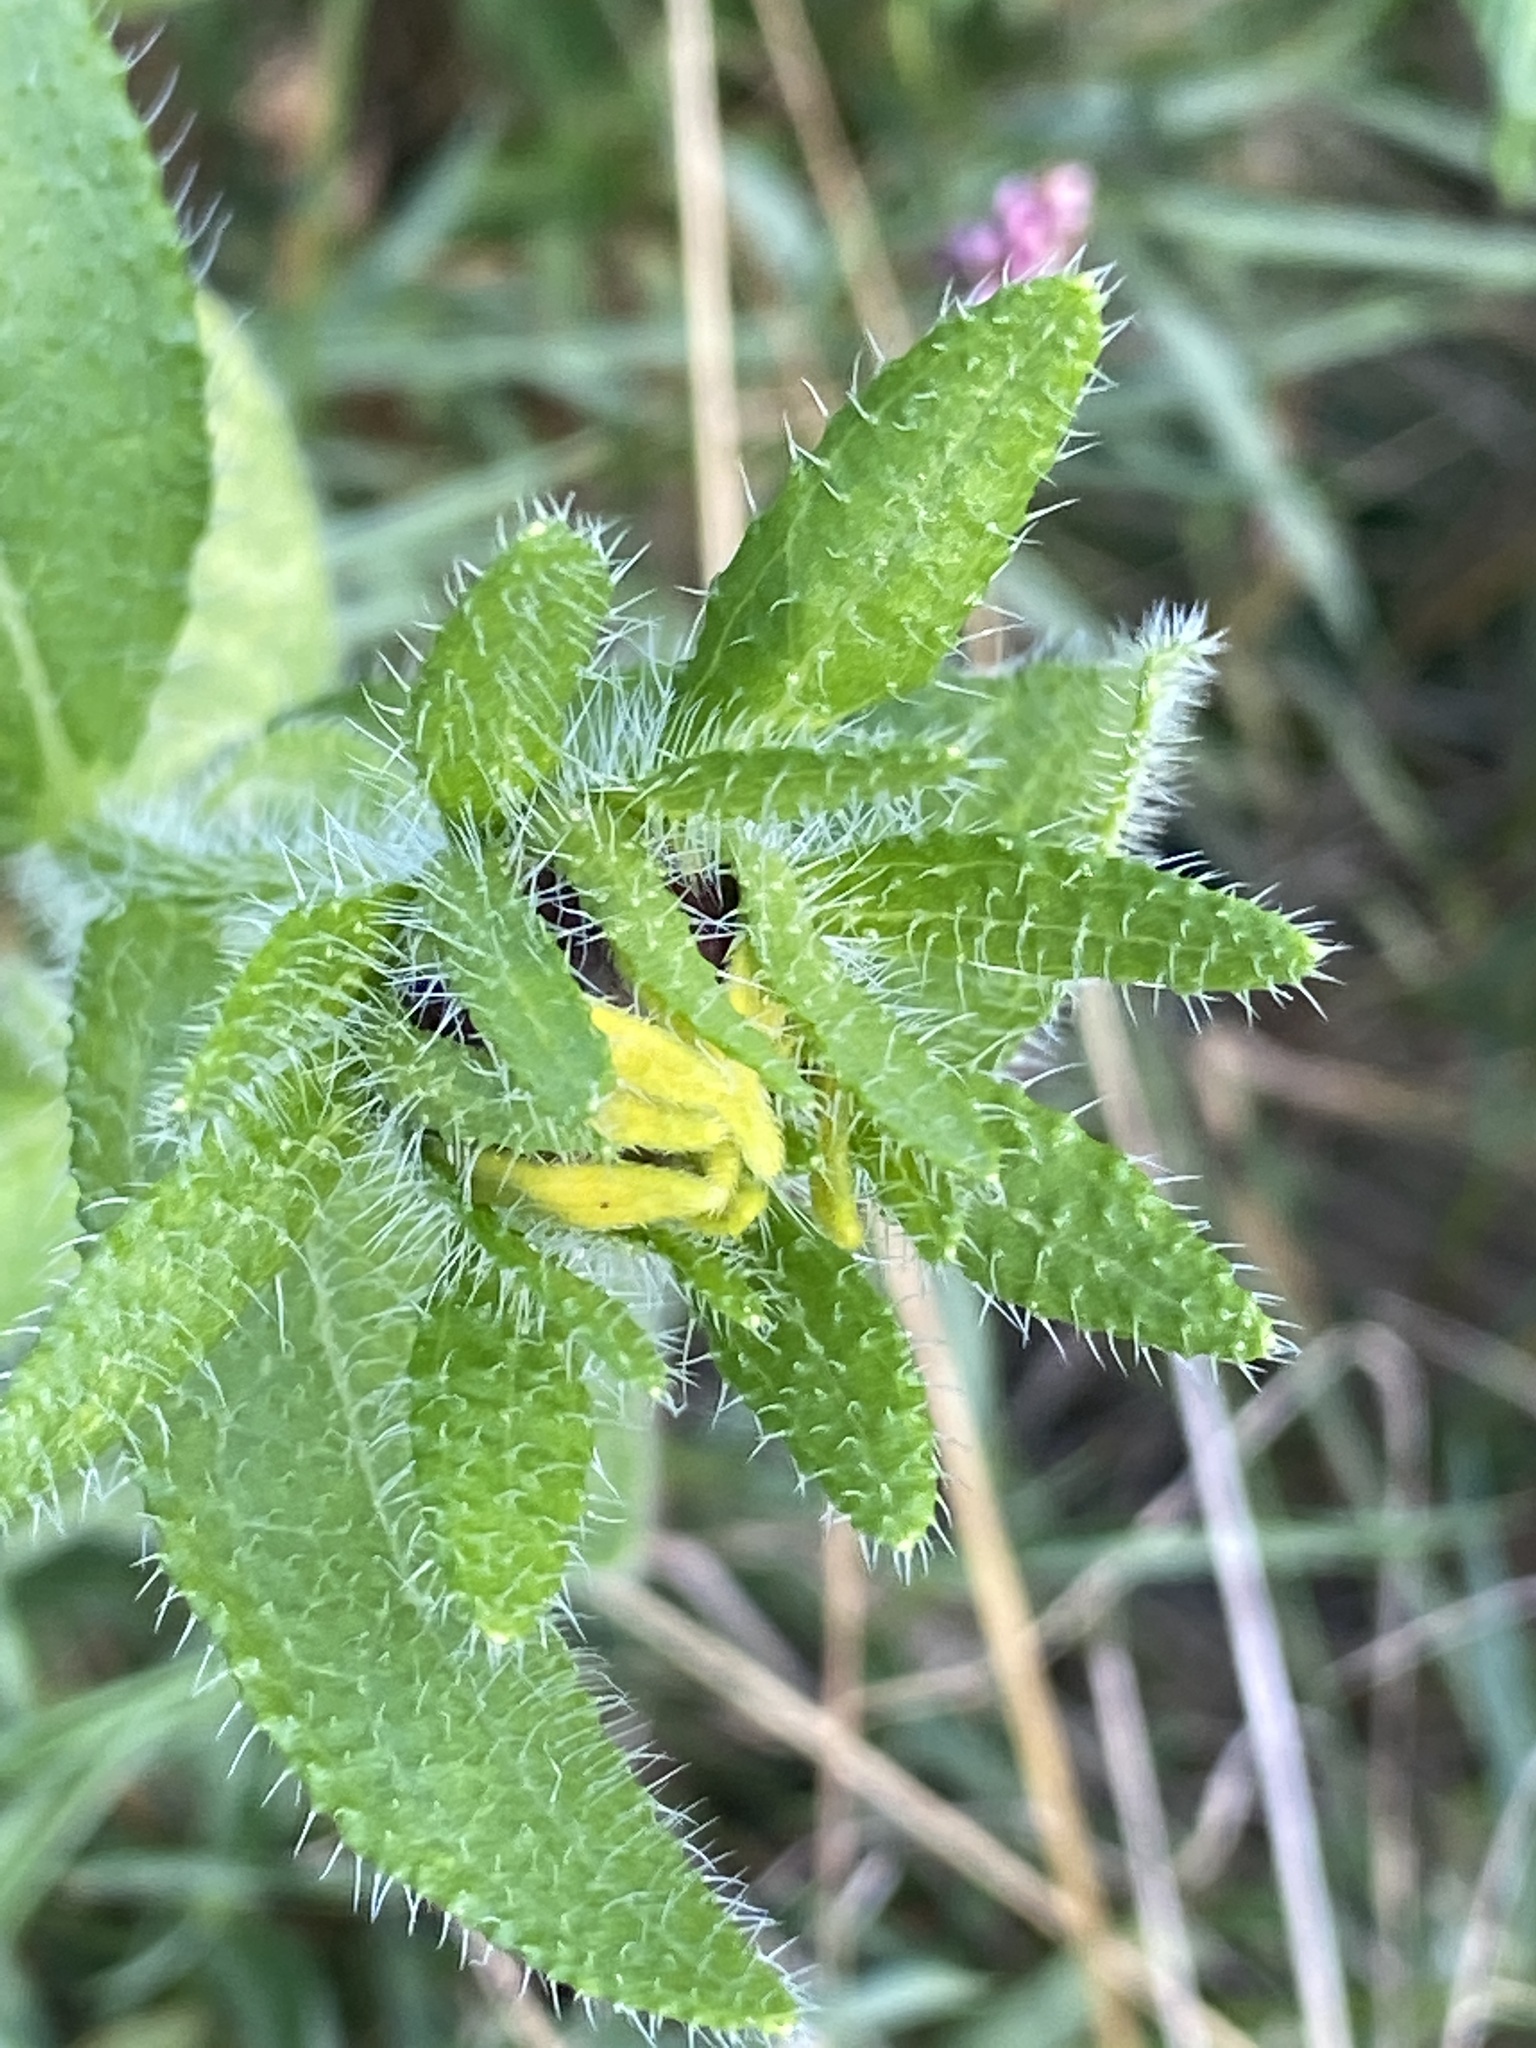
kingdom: Plantae
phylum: Tracheophyta
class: Magnoliopsida
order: Asterales
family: Asteraceae
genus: Rudbeckia
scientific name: Rudbeckia hirta
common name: Black-eyed-susan
